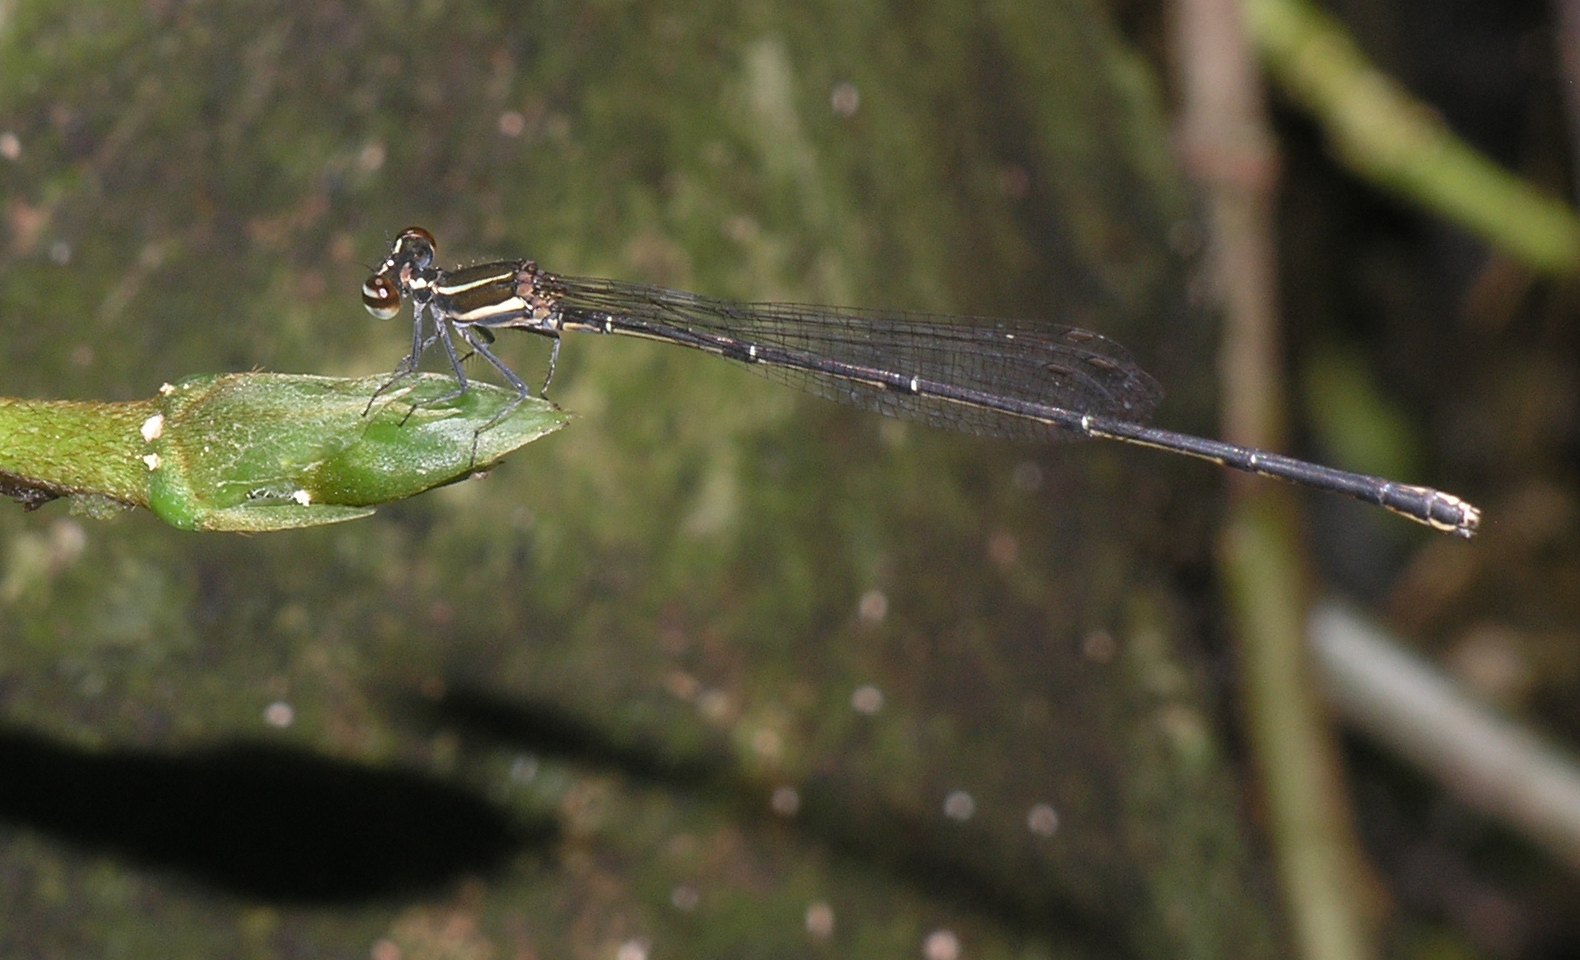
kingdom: Animalia
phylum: Arthropoda
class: Insecta
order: Odonata
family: Platycnemididae
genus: Prodasineura
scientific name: Prodasineura autumnalis
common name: Black threadtail
